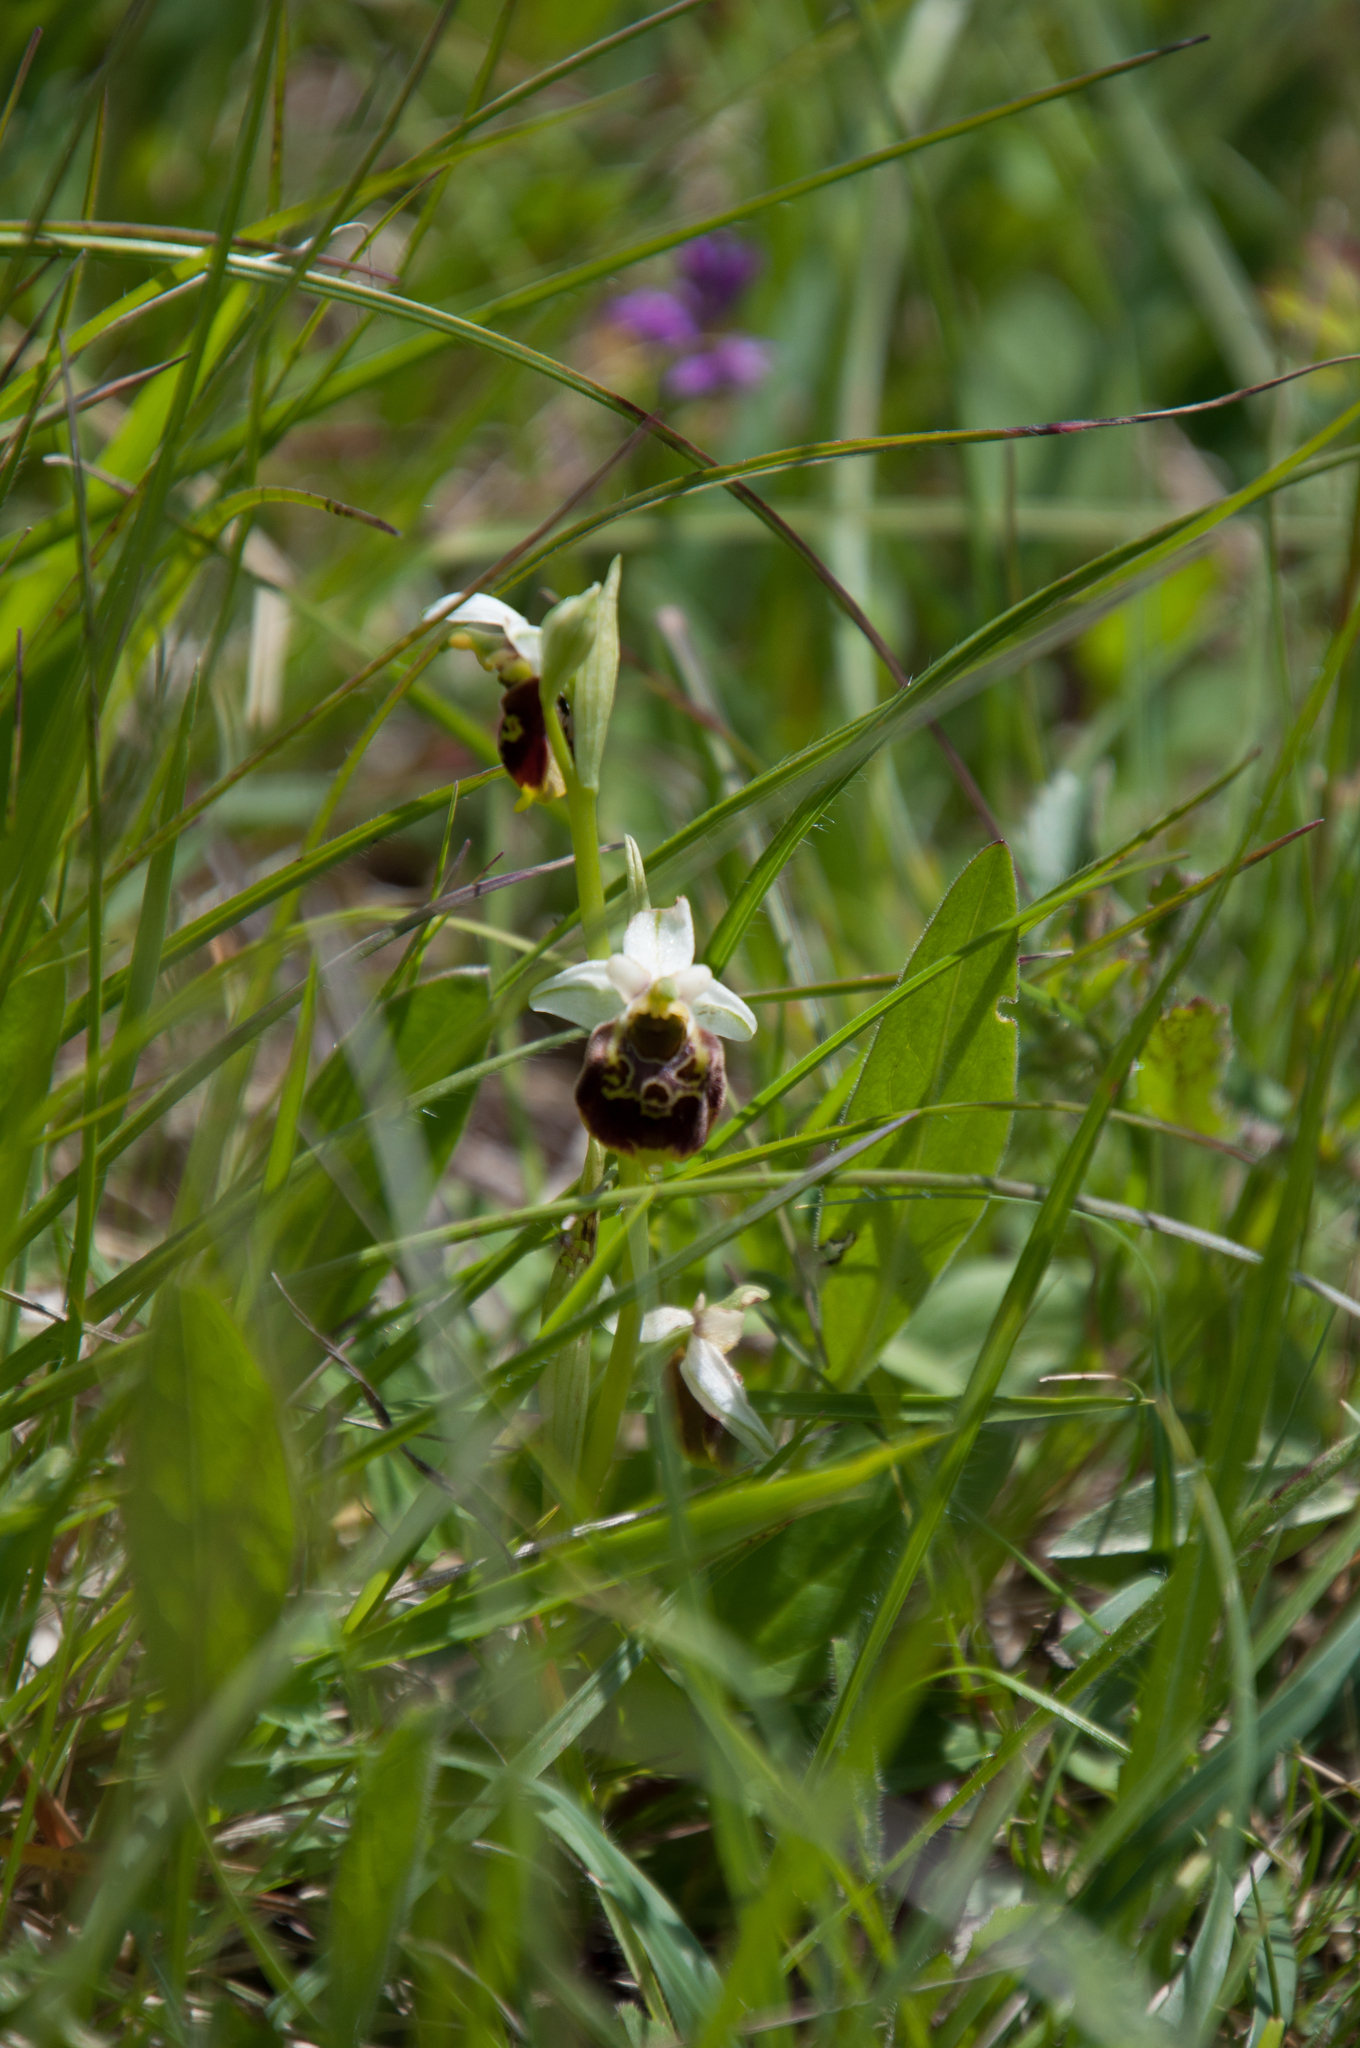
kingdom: Plantae
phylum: Tracheophyta
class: Liliopsida
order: Asparagales
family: Orchidaceae
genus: Ophrys
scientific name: Ophrys holosericea
